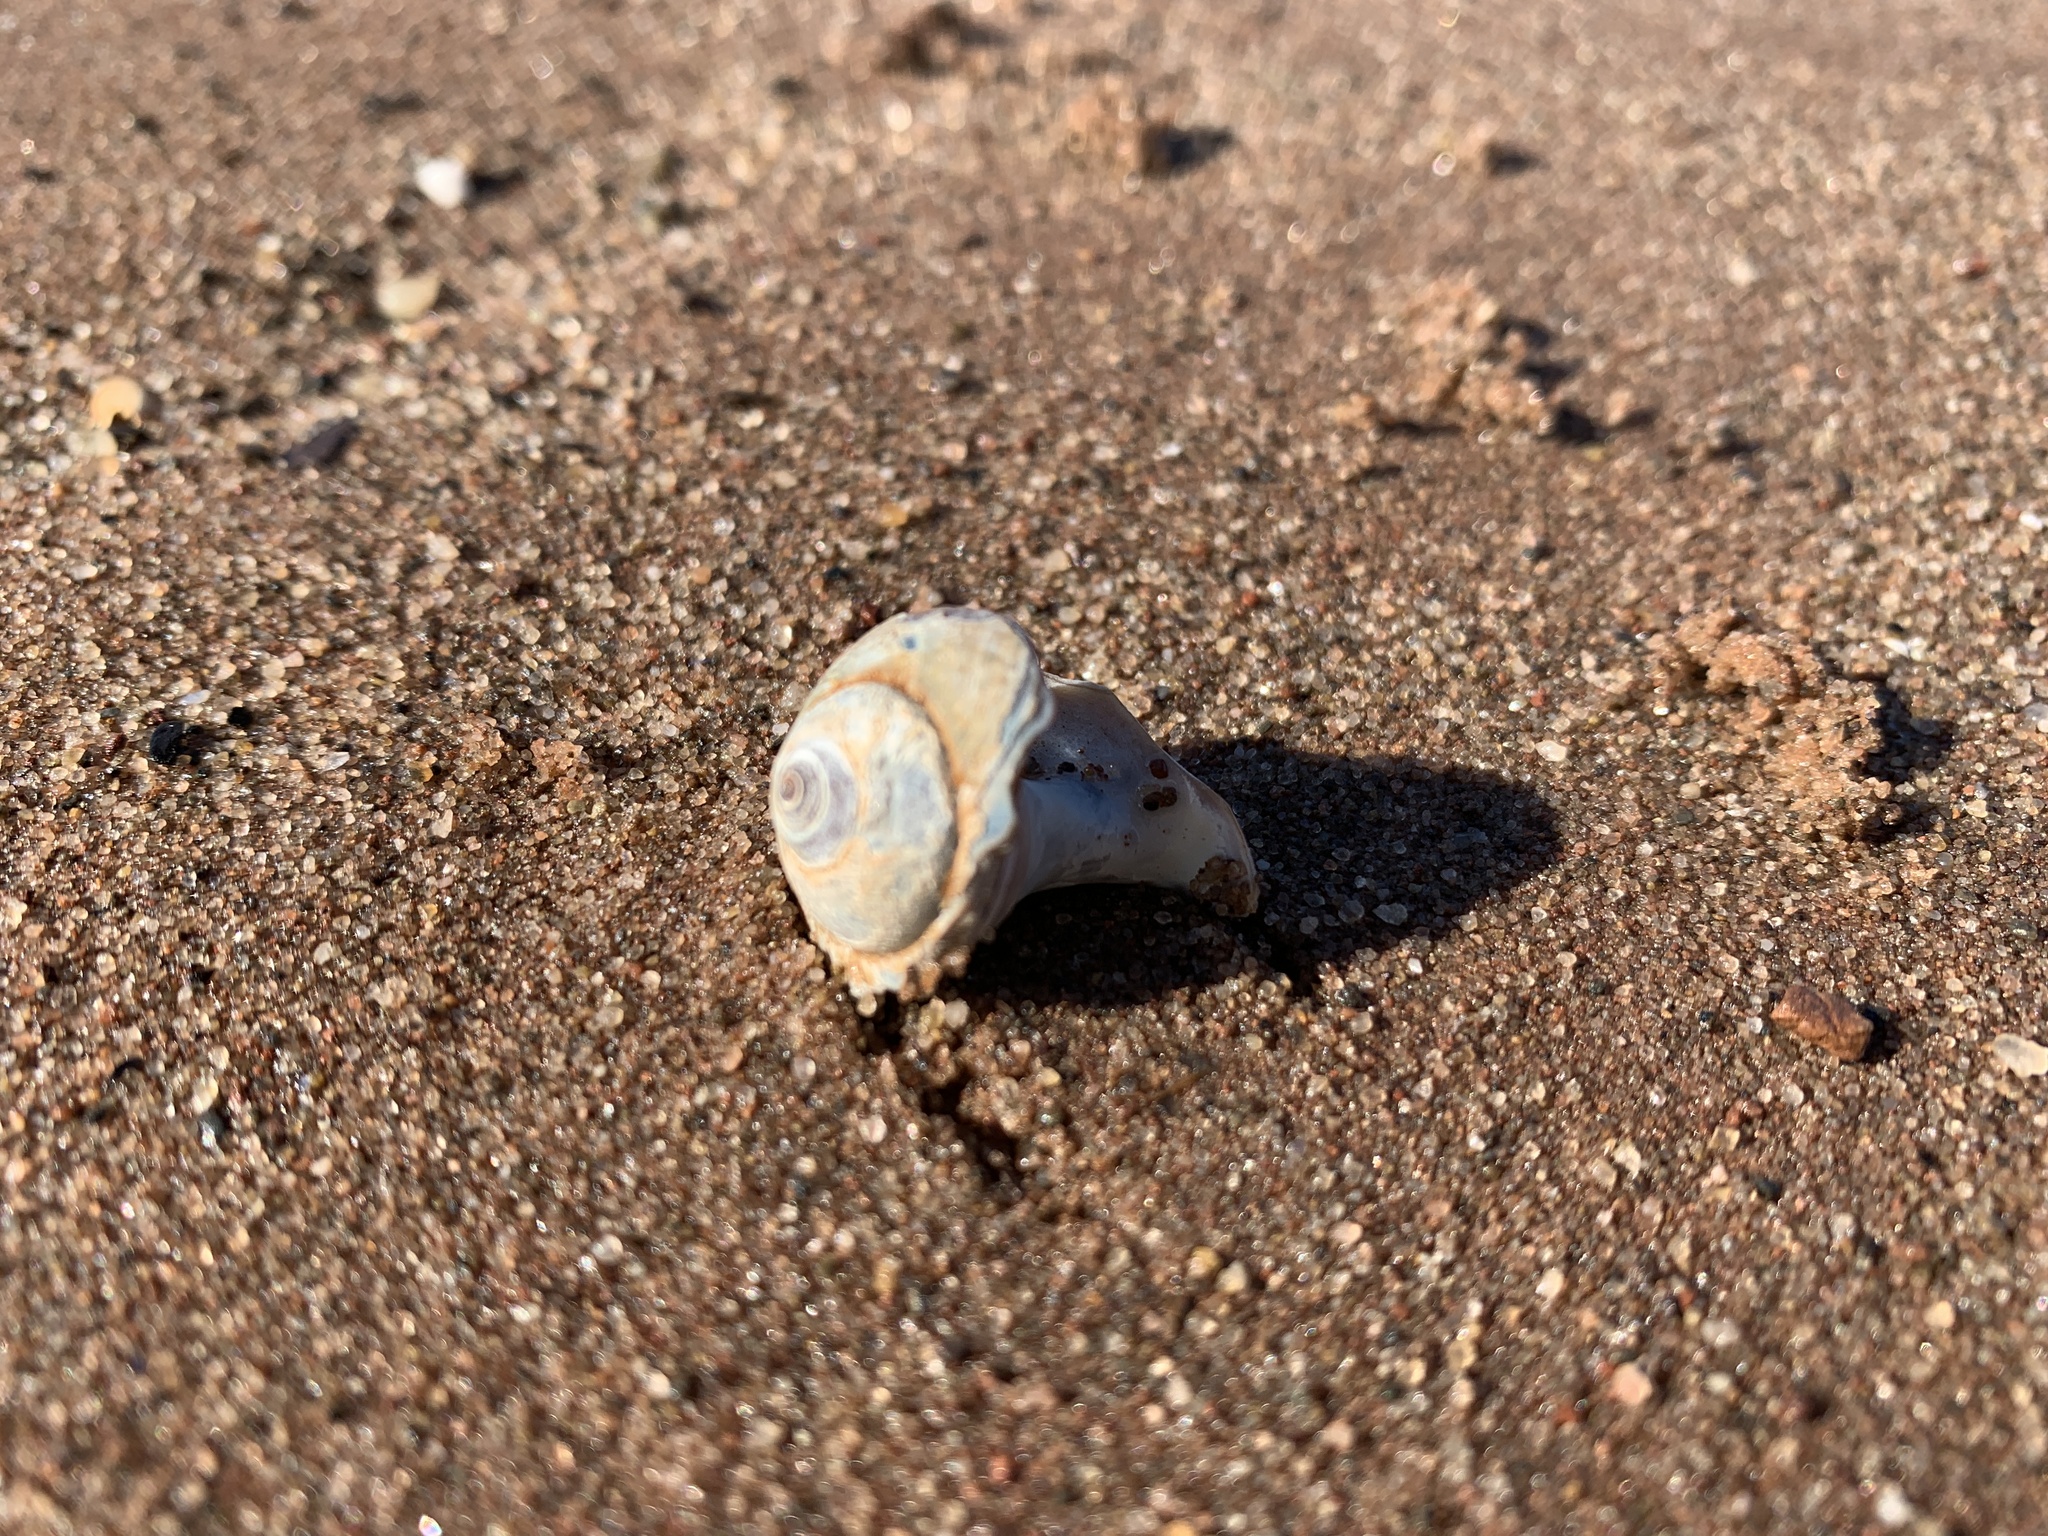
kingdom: Animalia
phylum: Mollusca
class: Gastropoda
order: Littorinimorpha
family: Naticidae
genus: Euspira
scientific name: Euspira heros
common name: Common northern moonsnail
